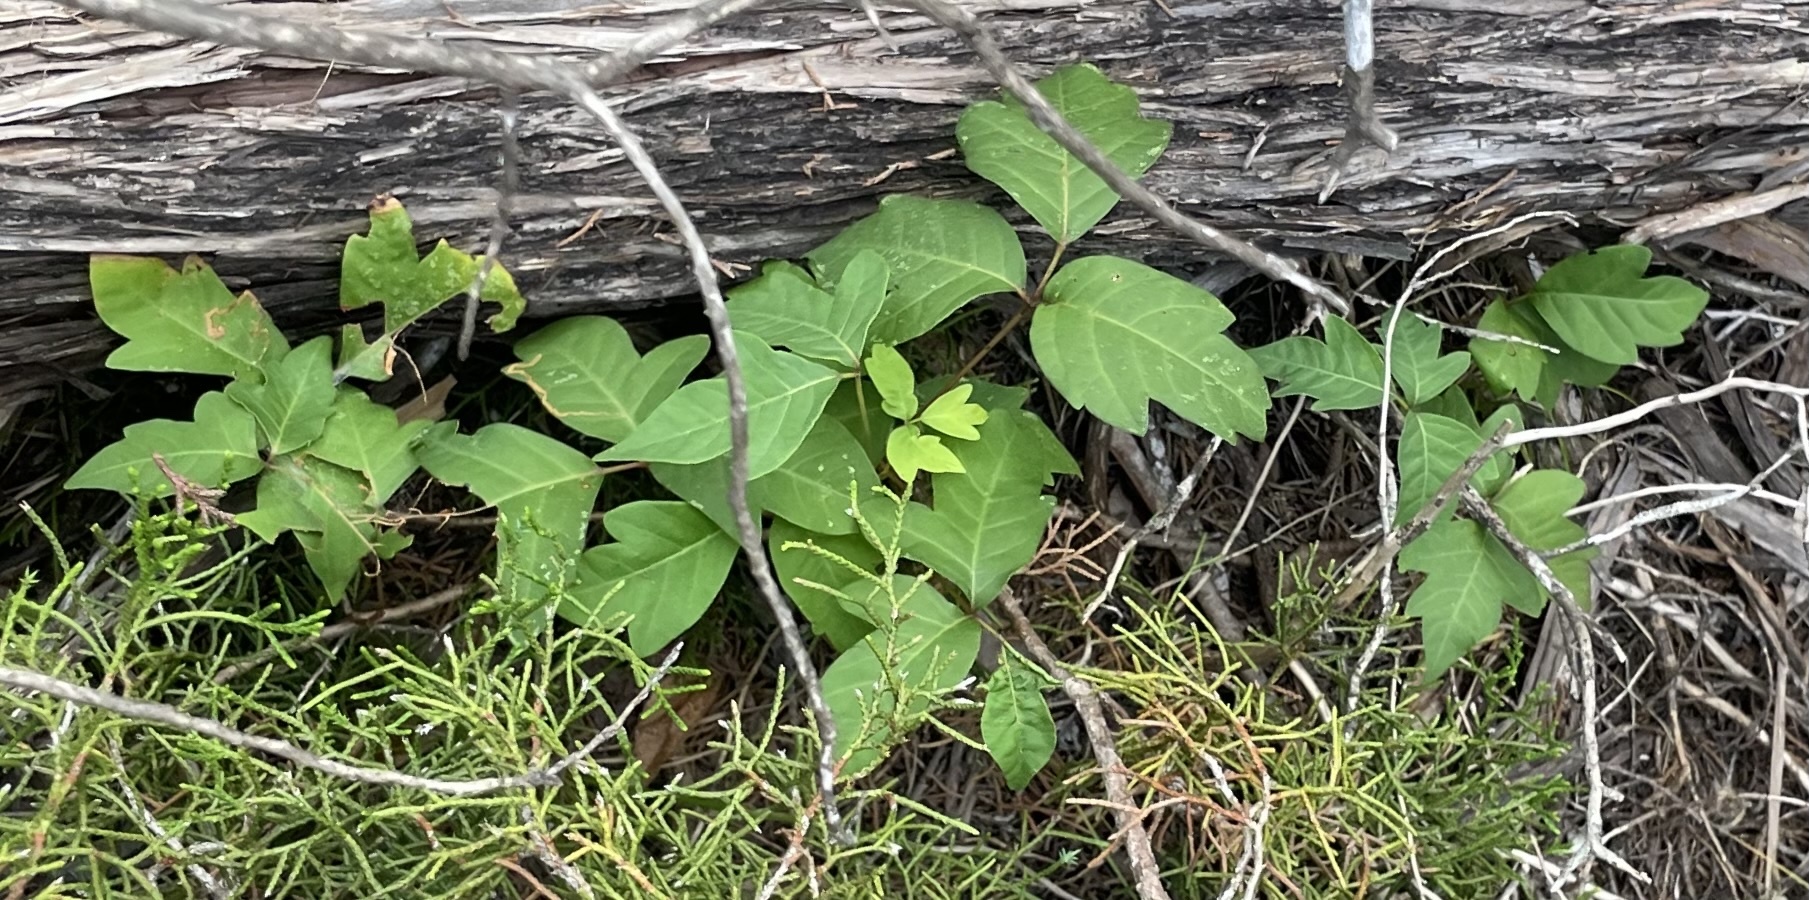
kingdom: Plantae
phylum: Tracheophyta
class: Magnoliopsida
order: Sapindales
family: Anacardiaceae
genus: Toxicodendron
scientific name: Toxicodendron radicans
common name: Poison ivy
